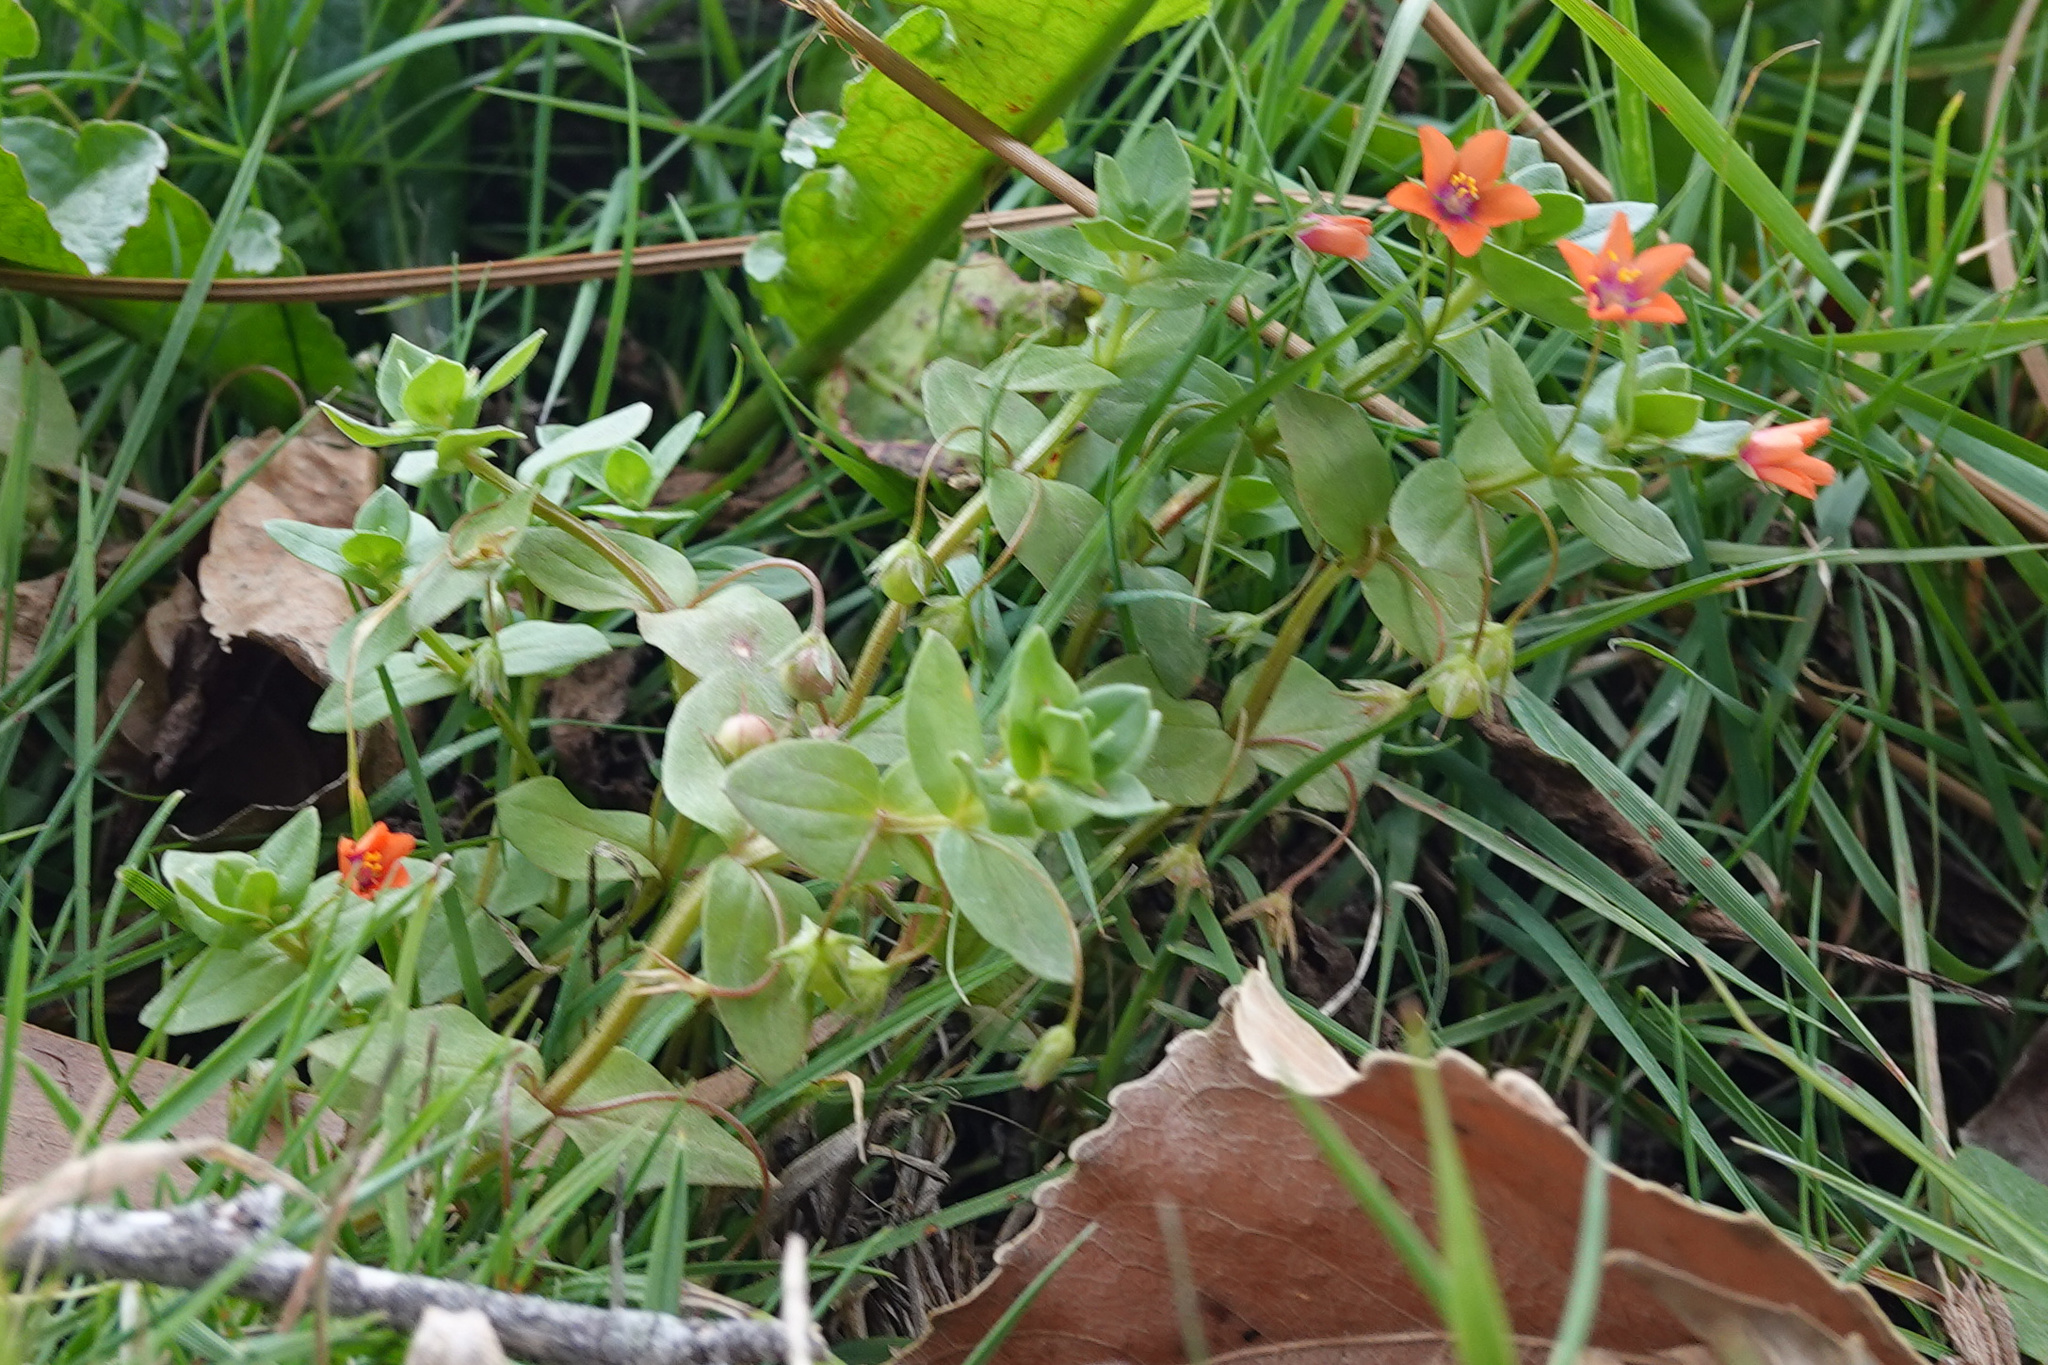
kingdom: Plantae
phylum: Tracheophyta
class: Magnoliopsida
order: Ericales
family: Primulaceae
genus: Lysimachia
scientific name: Lysimachia arvensis
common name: Scarlet pimpernel
